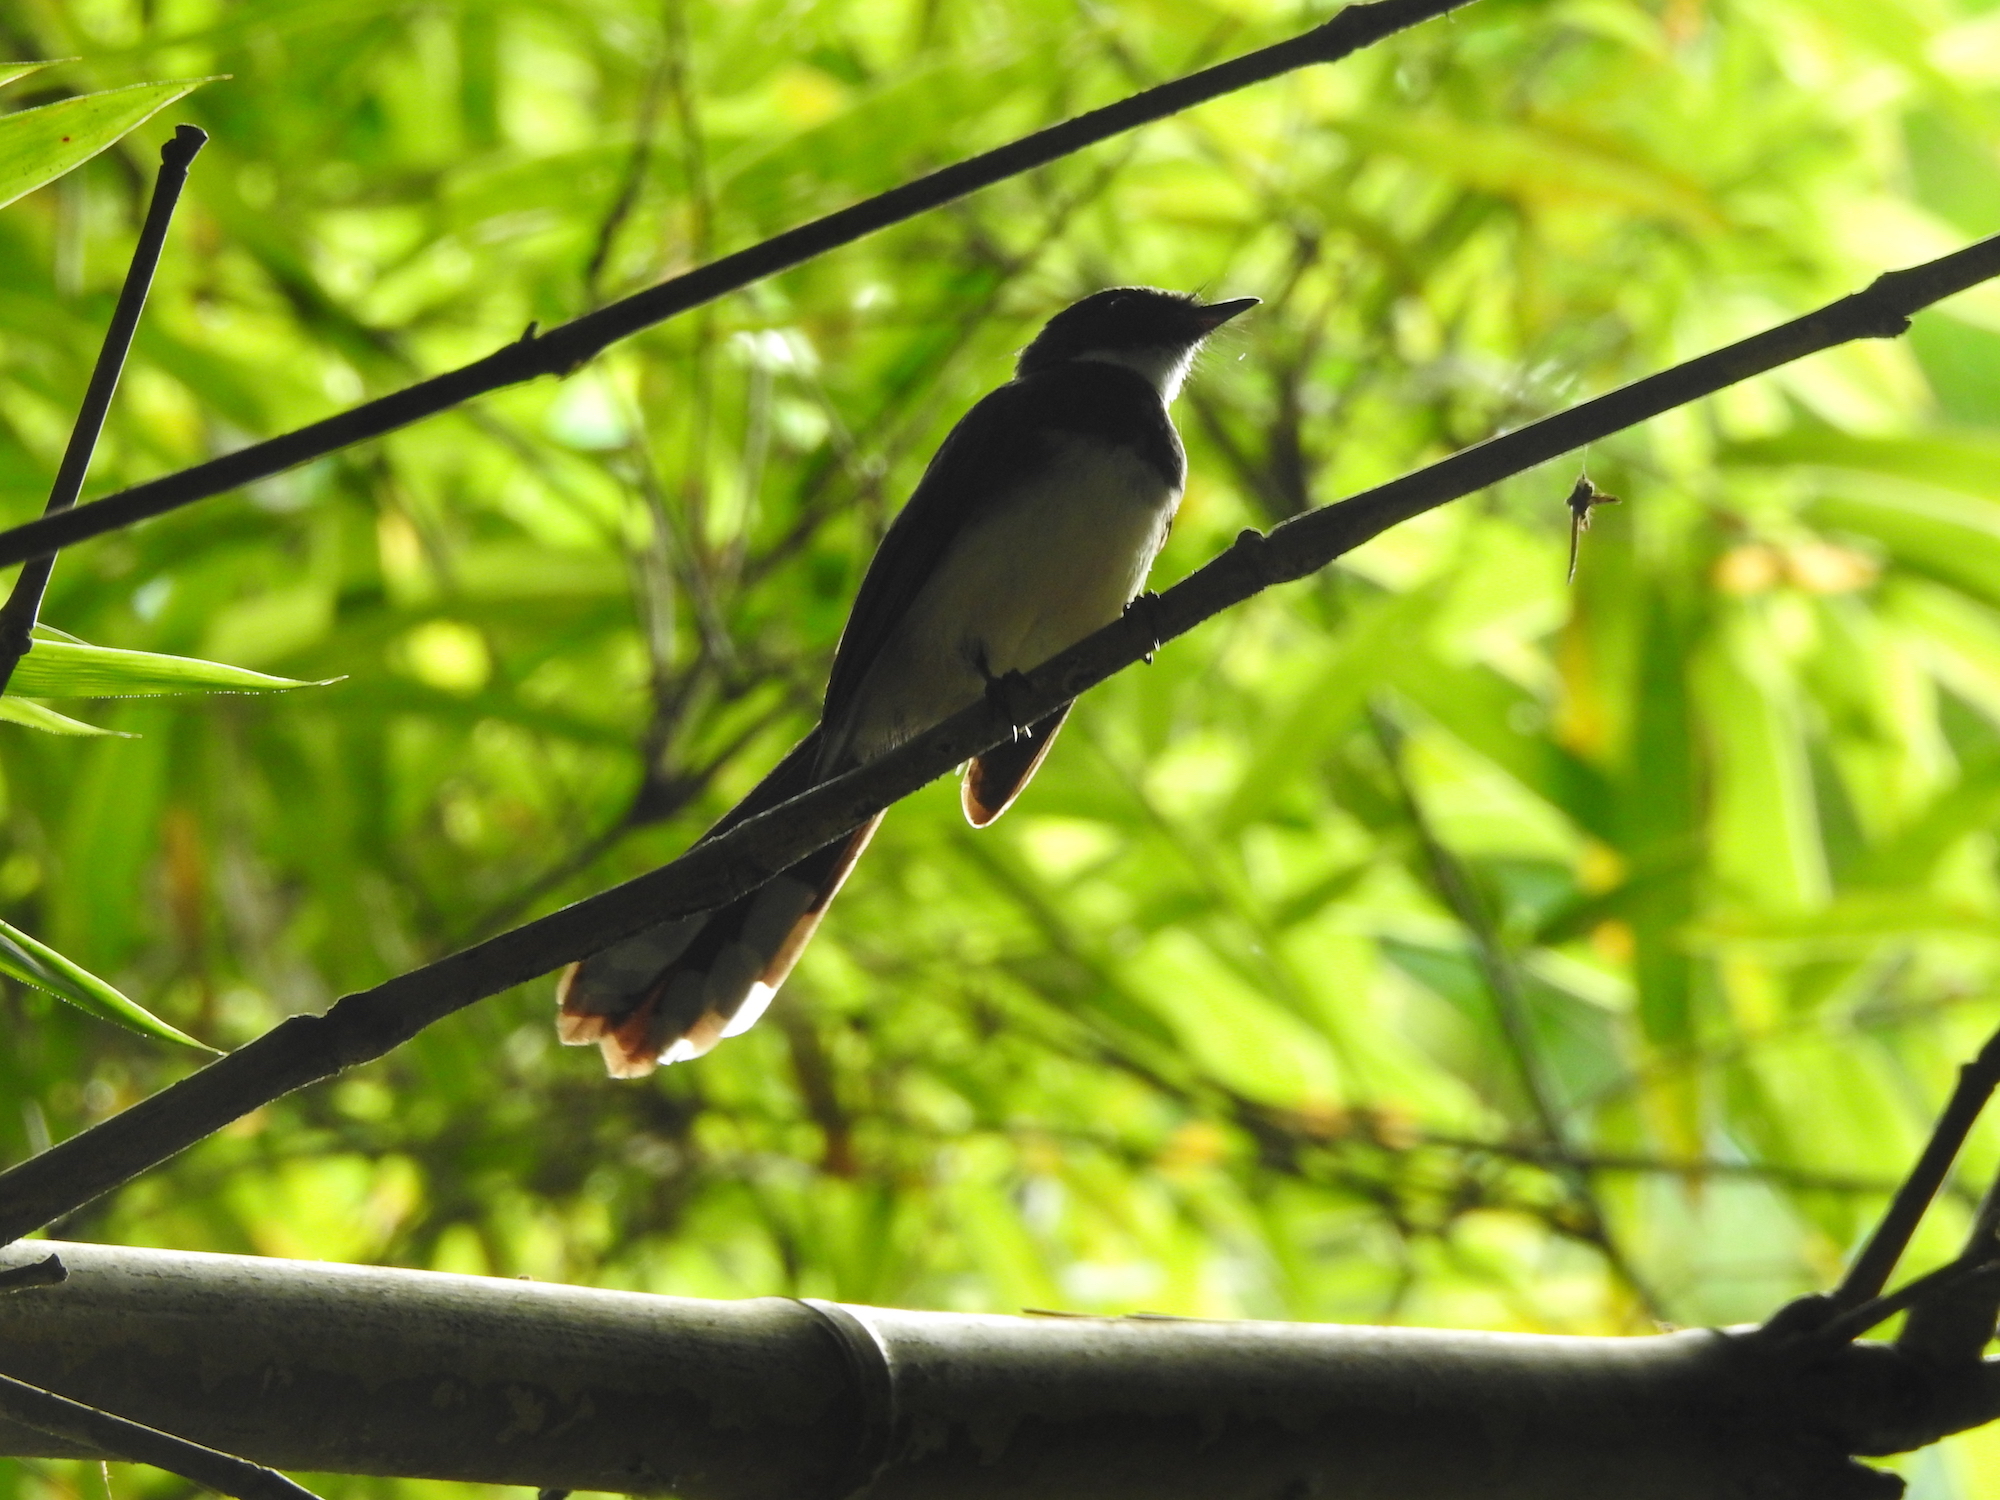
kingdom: Animalia
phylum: Chordata
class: Aves
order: Passeriformes
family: Rhipiduridae
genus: Rhipidura
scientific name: Rhipidura javanica
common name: Pied fantail
